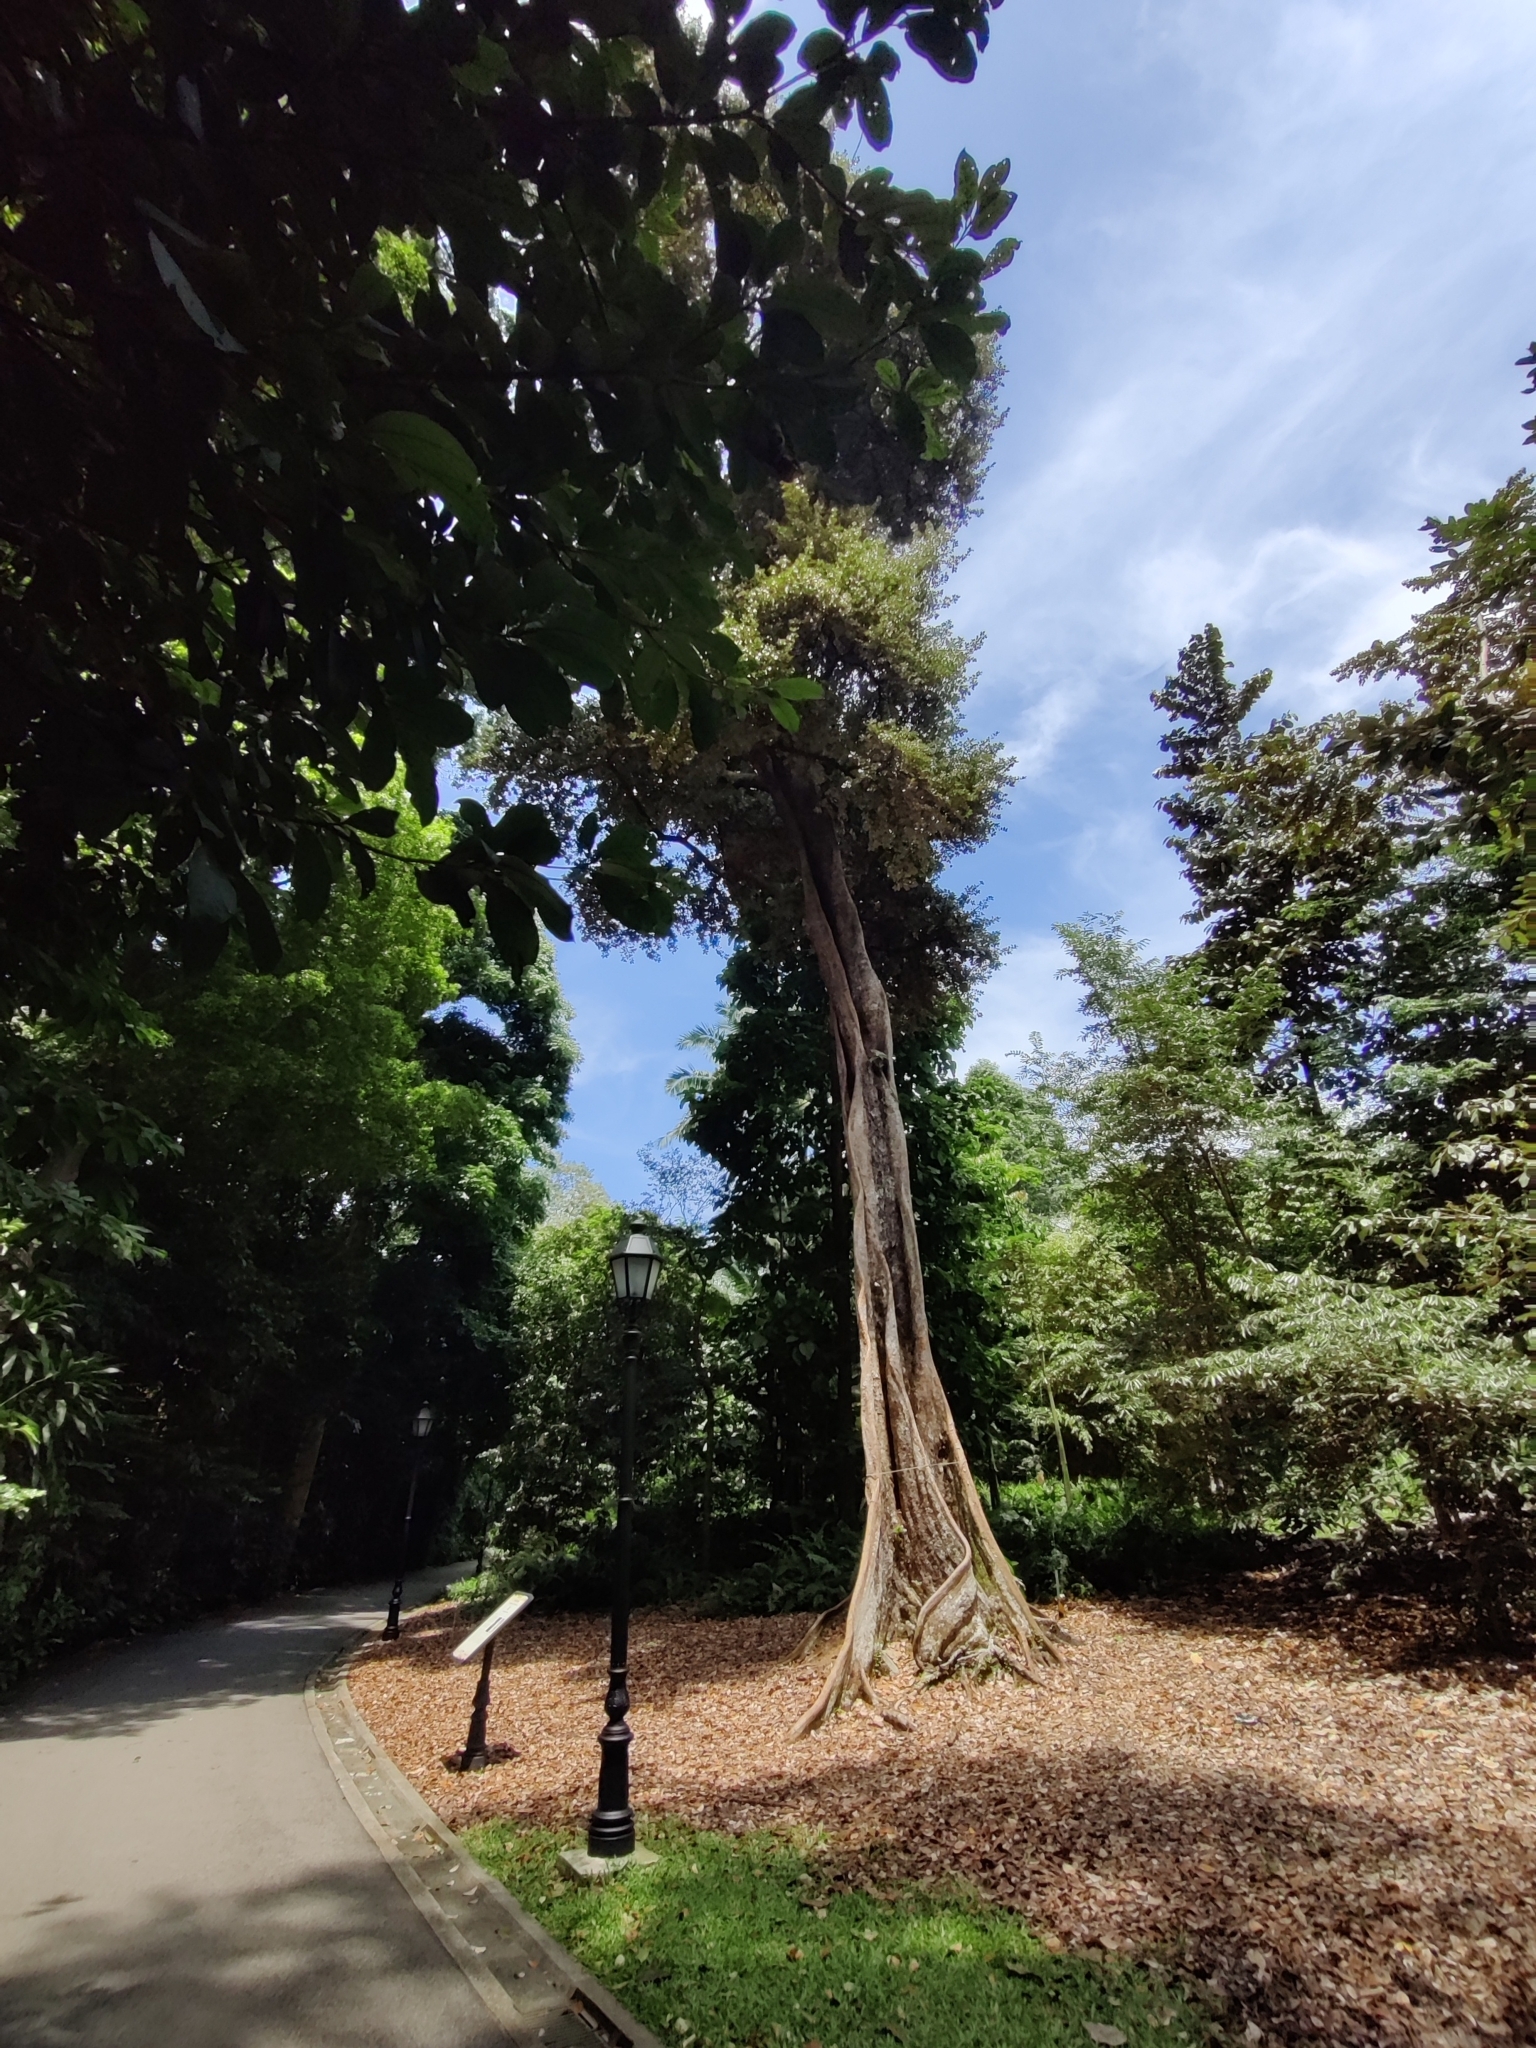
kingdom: Plantae
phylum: Tracheophyta
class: Magnoliopsida
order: Malvales
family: Malvaceae
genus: Heritiera
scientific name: Heritiera elata
